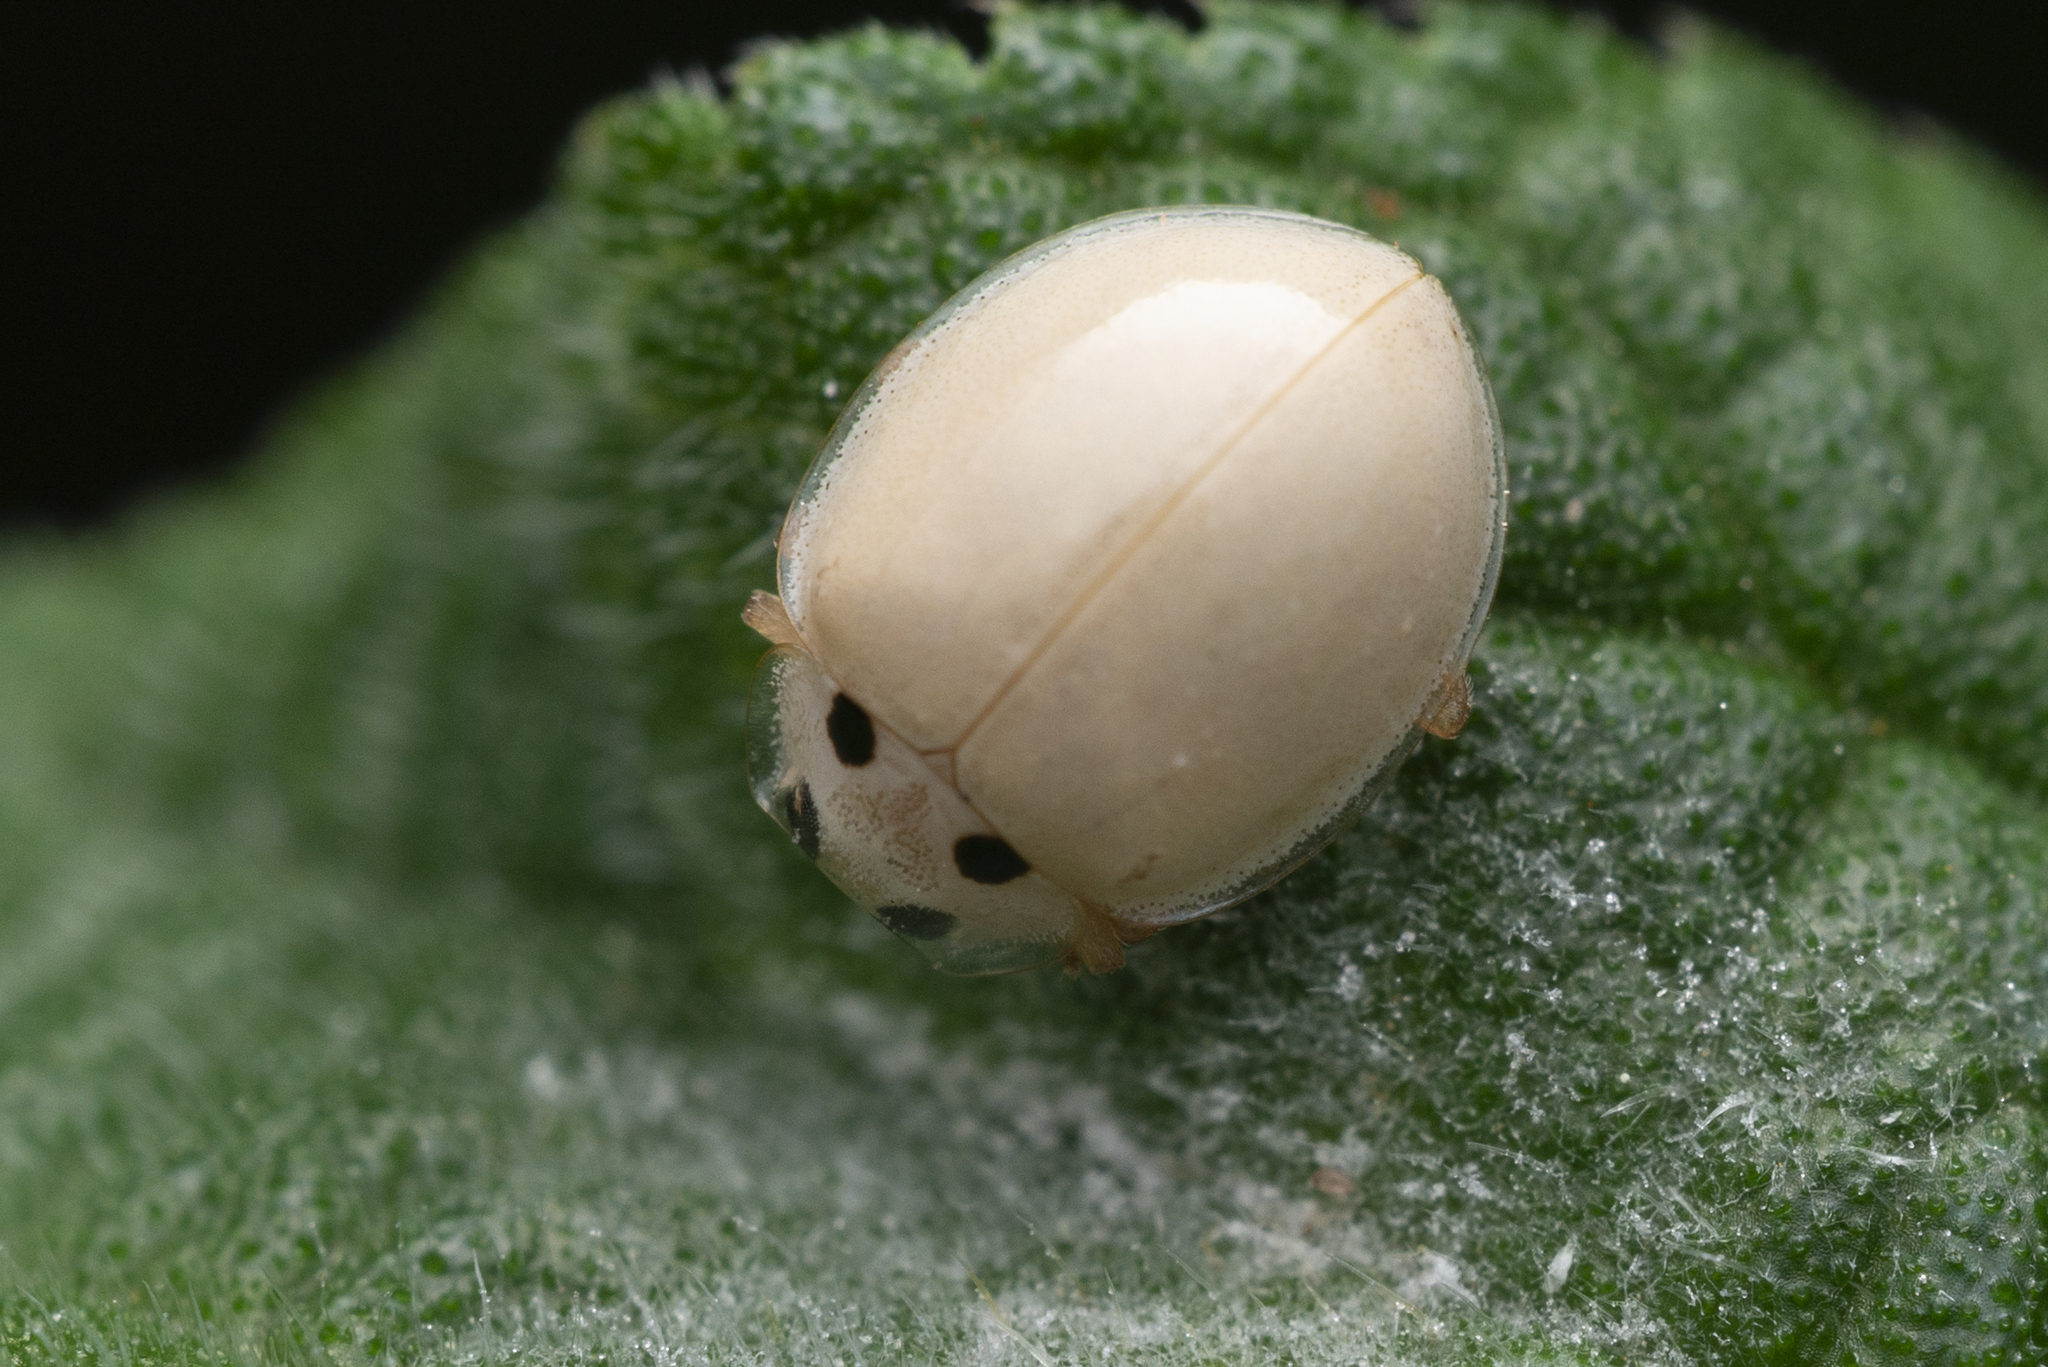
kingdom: Animalia
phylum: Arthropoda
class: Insecta
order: Coleoptera
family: Coccinellidae
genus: Illeis
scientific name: Illeis confusa
